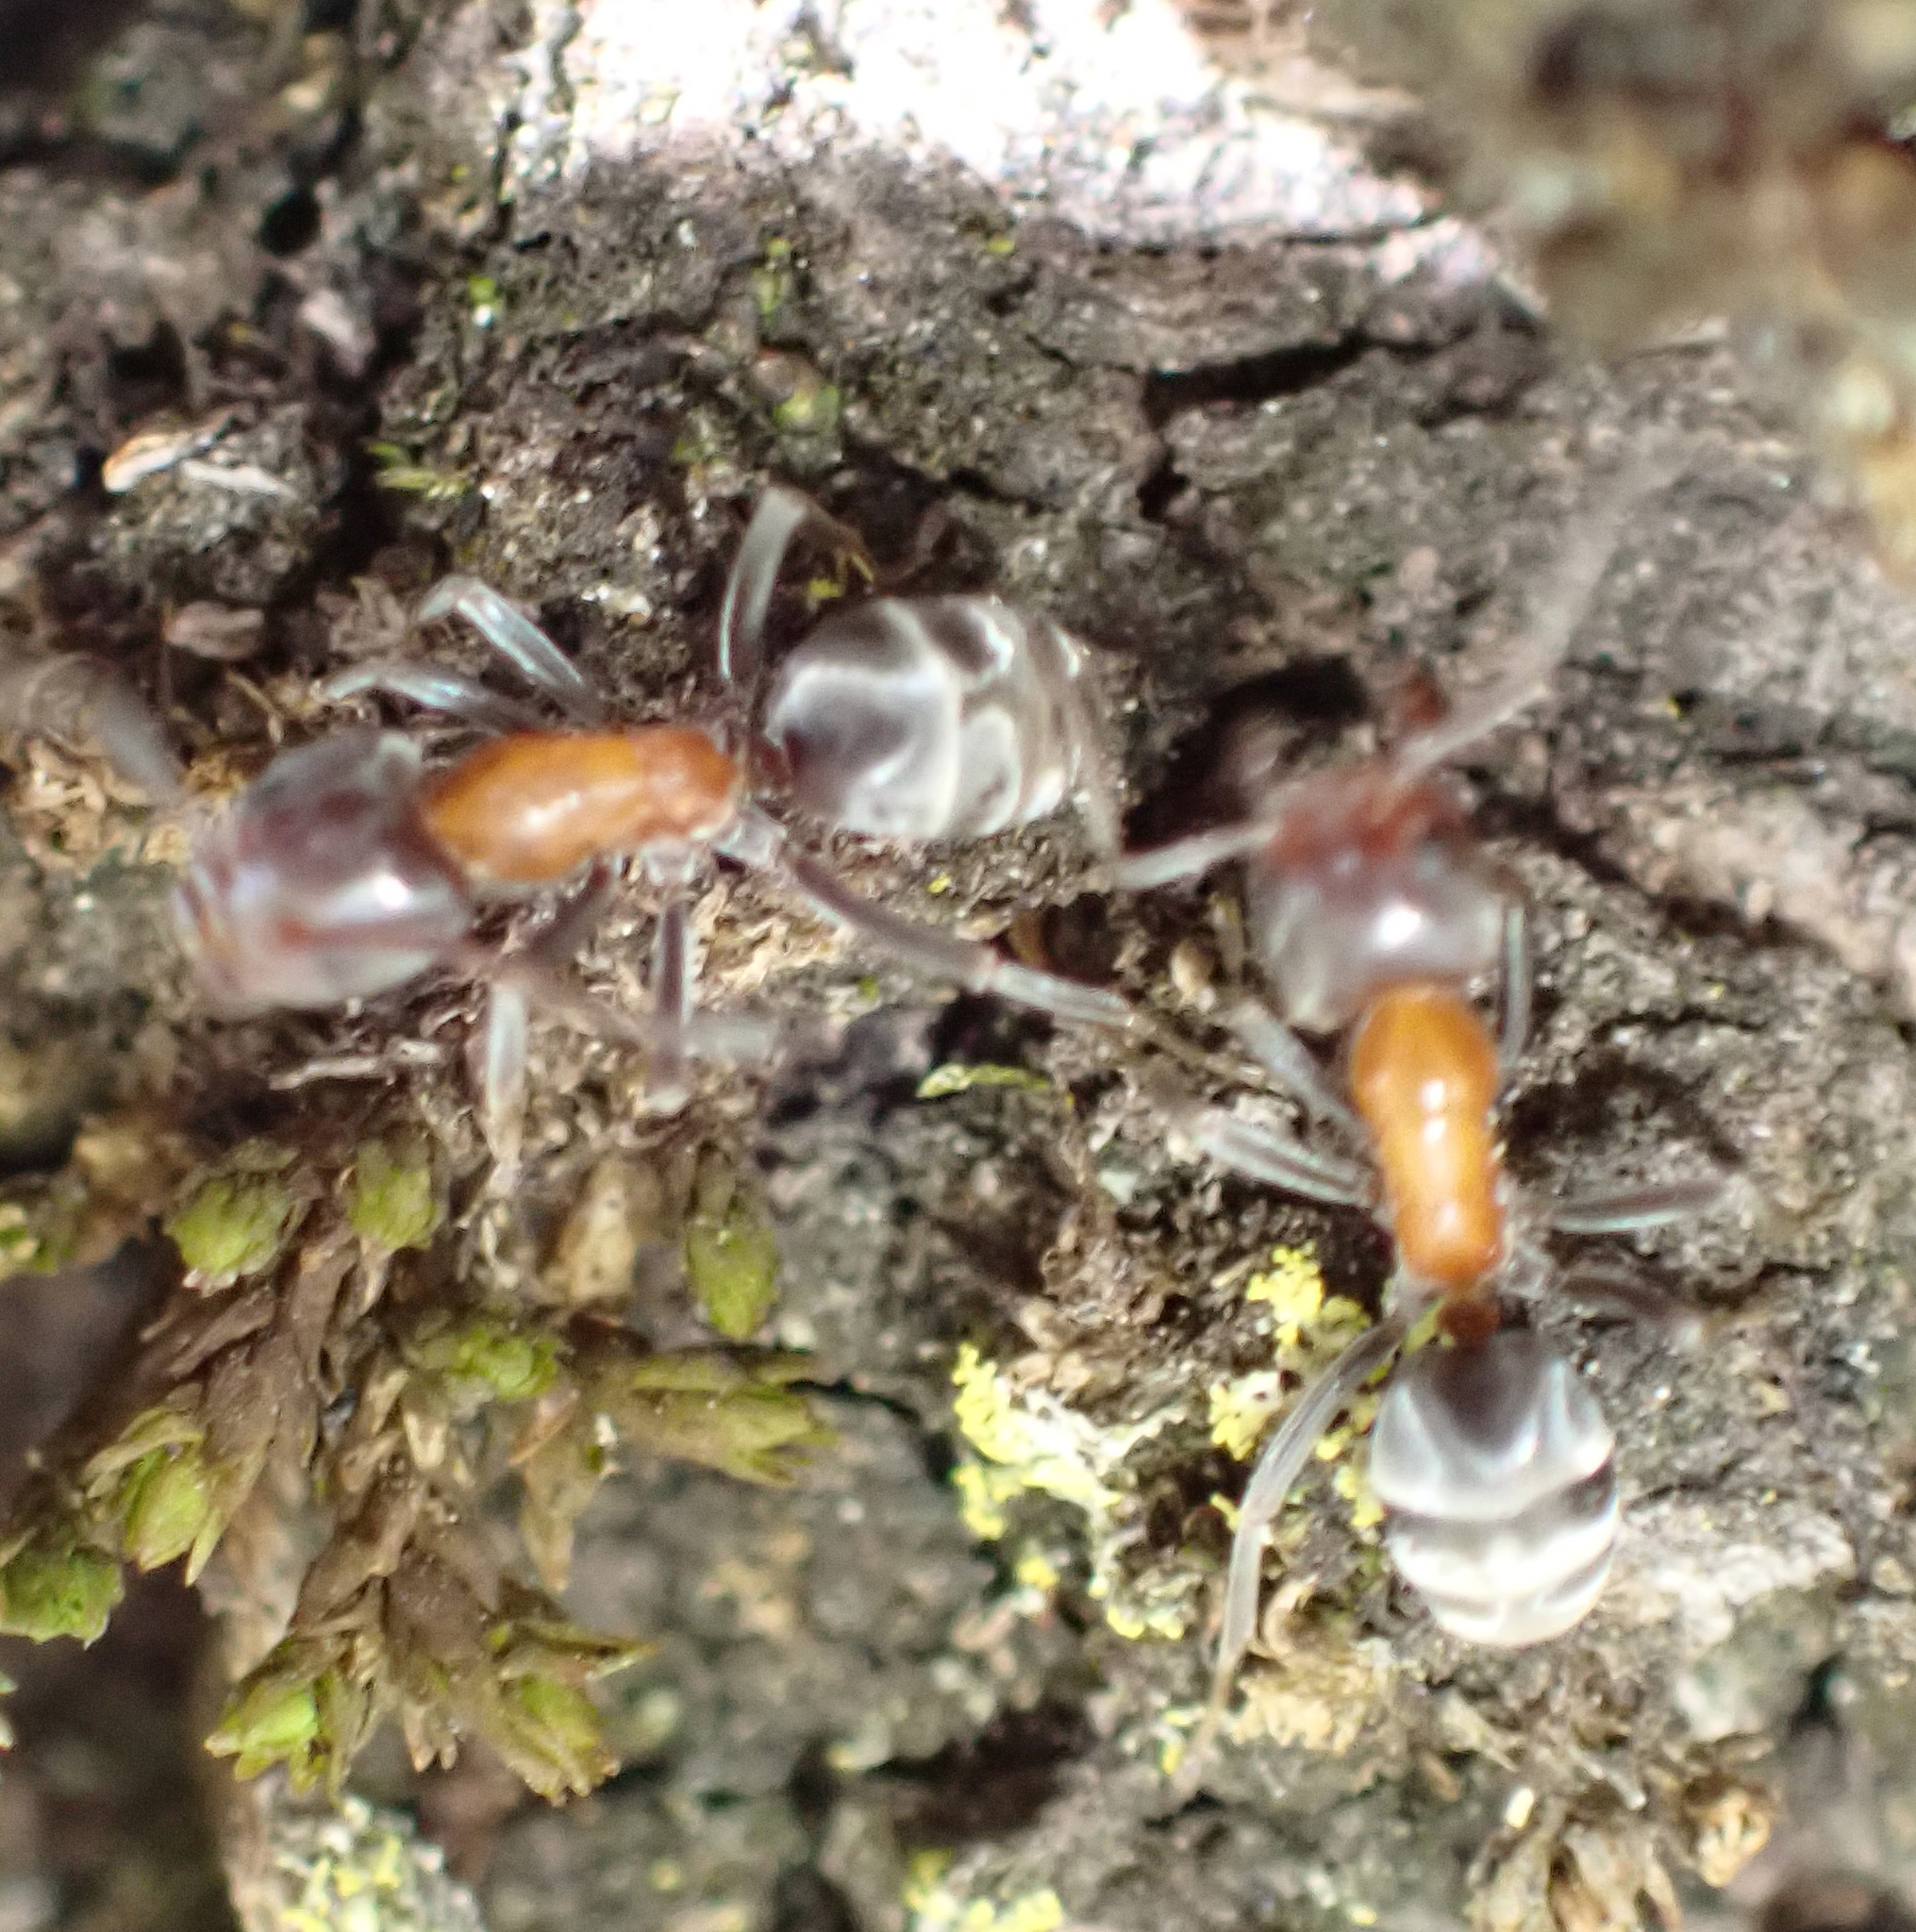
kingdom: Animalia
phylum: Arthropoda
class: Insecta
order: Hymenoptera
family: Formicidae
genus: Liometopum
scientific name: Liometopum microcephalum
